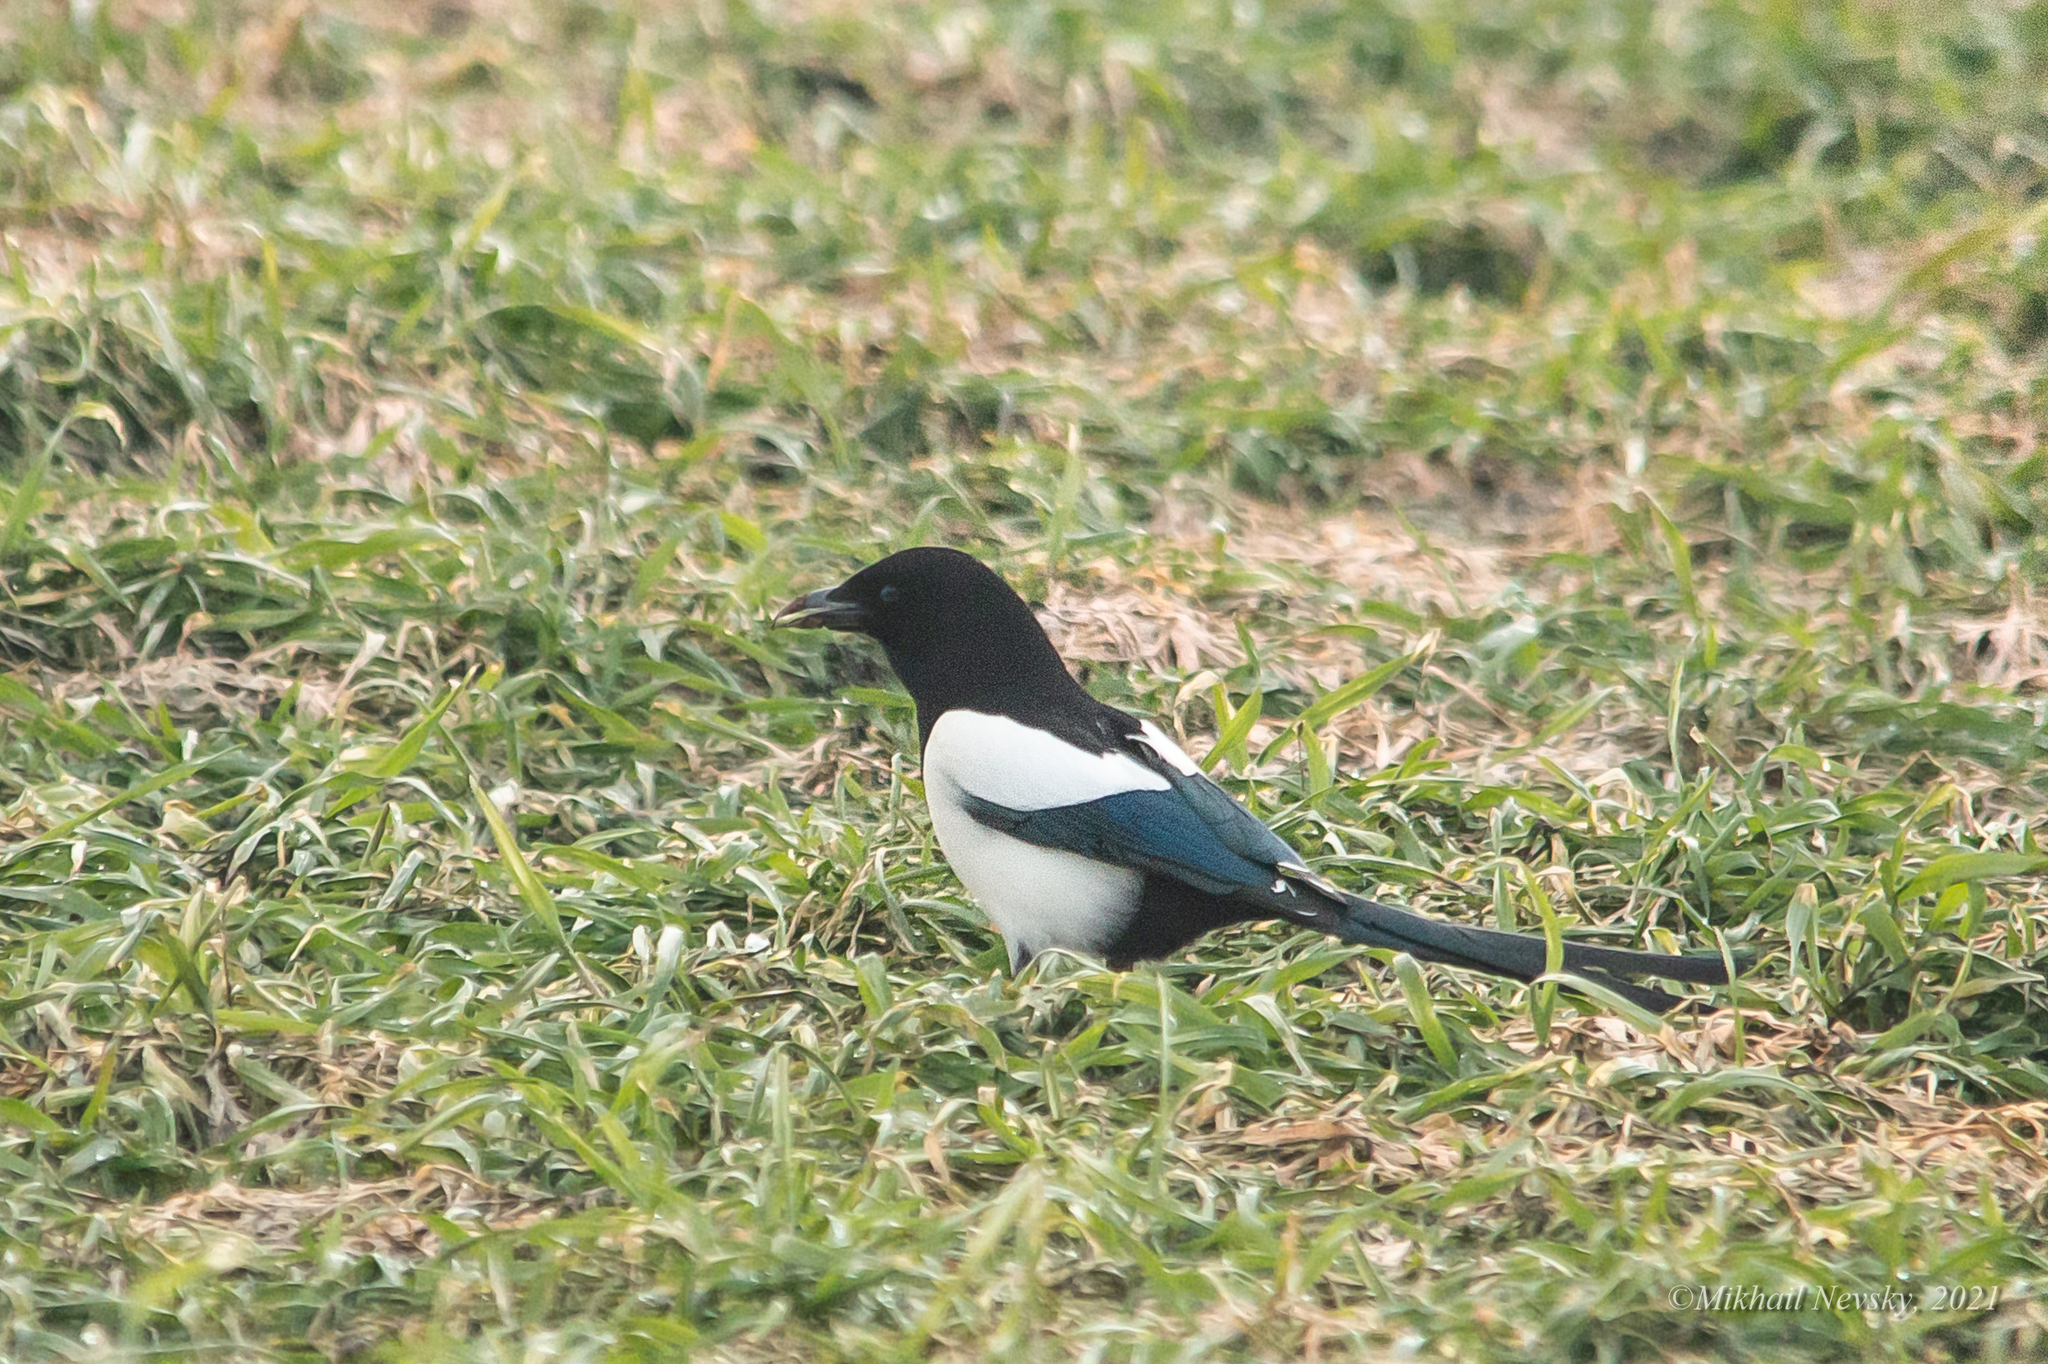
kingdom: Animalia
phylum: Chordata
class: Aves
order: Passeriformes
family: Corvidae
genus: Pica
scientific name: Pica pica
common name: Eurasian magpie
